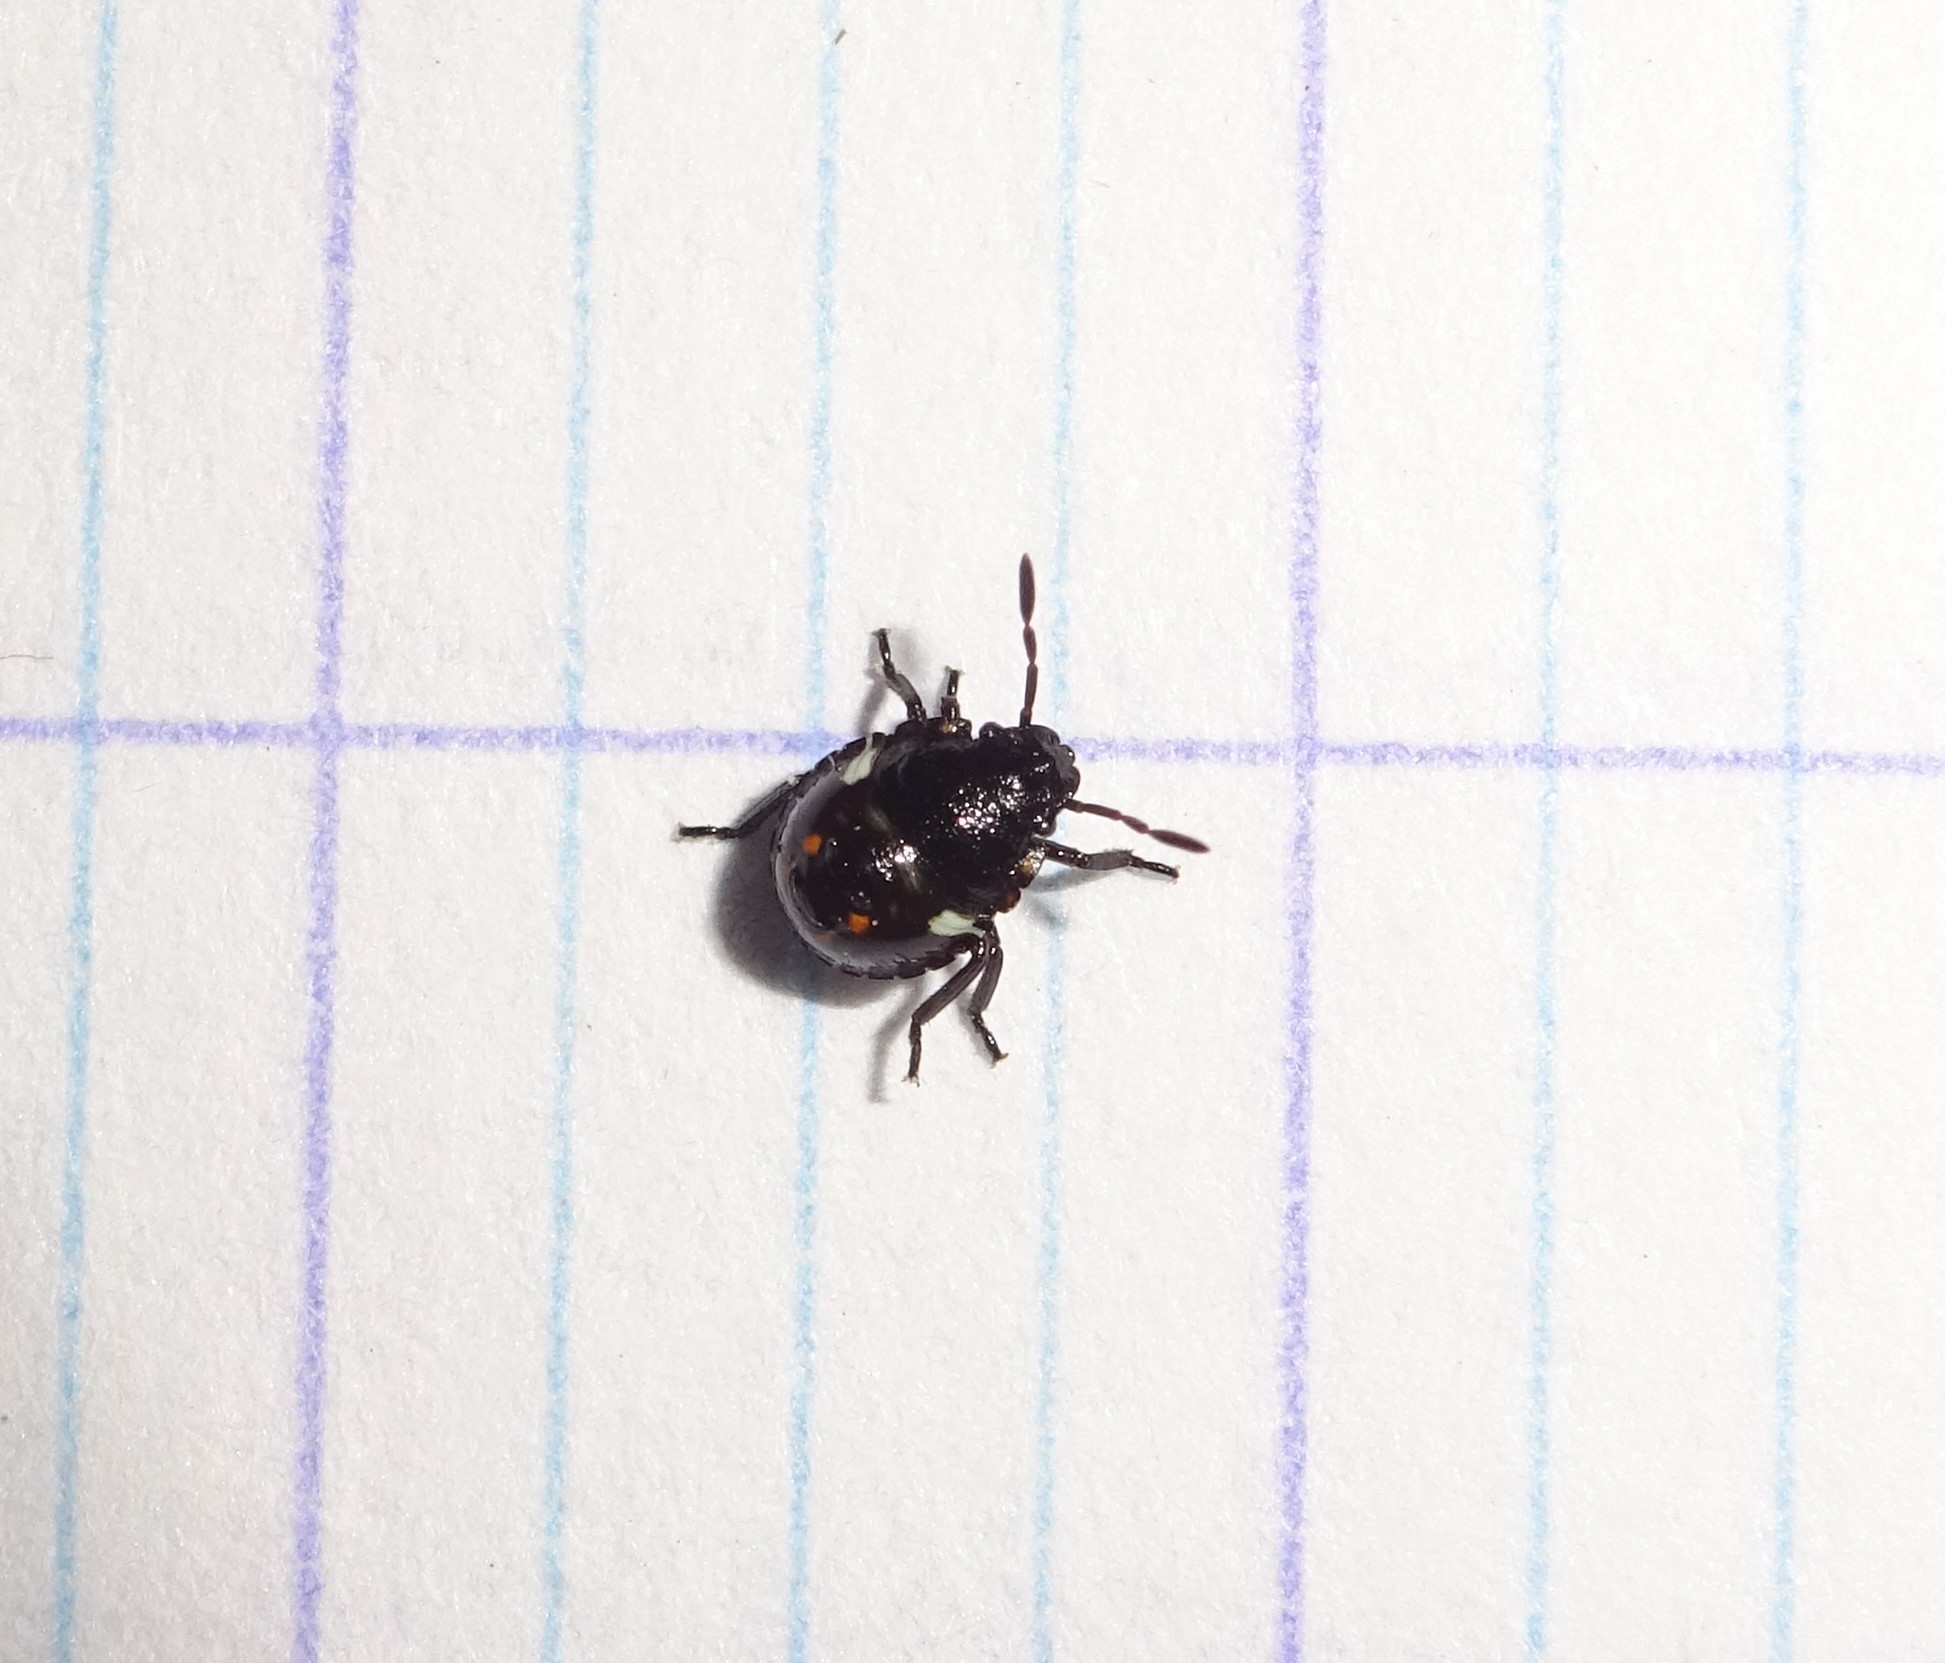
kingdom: Animalia
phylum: Arthropoda
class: Insecta
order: Hemiptera
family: Pentatomidae
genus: Nezara
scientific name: Nezara viridula
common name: Southern green stink bug
